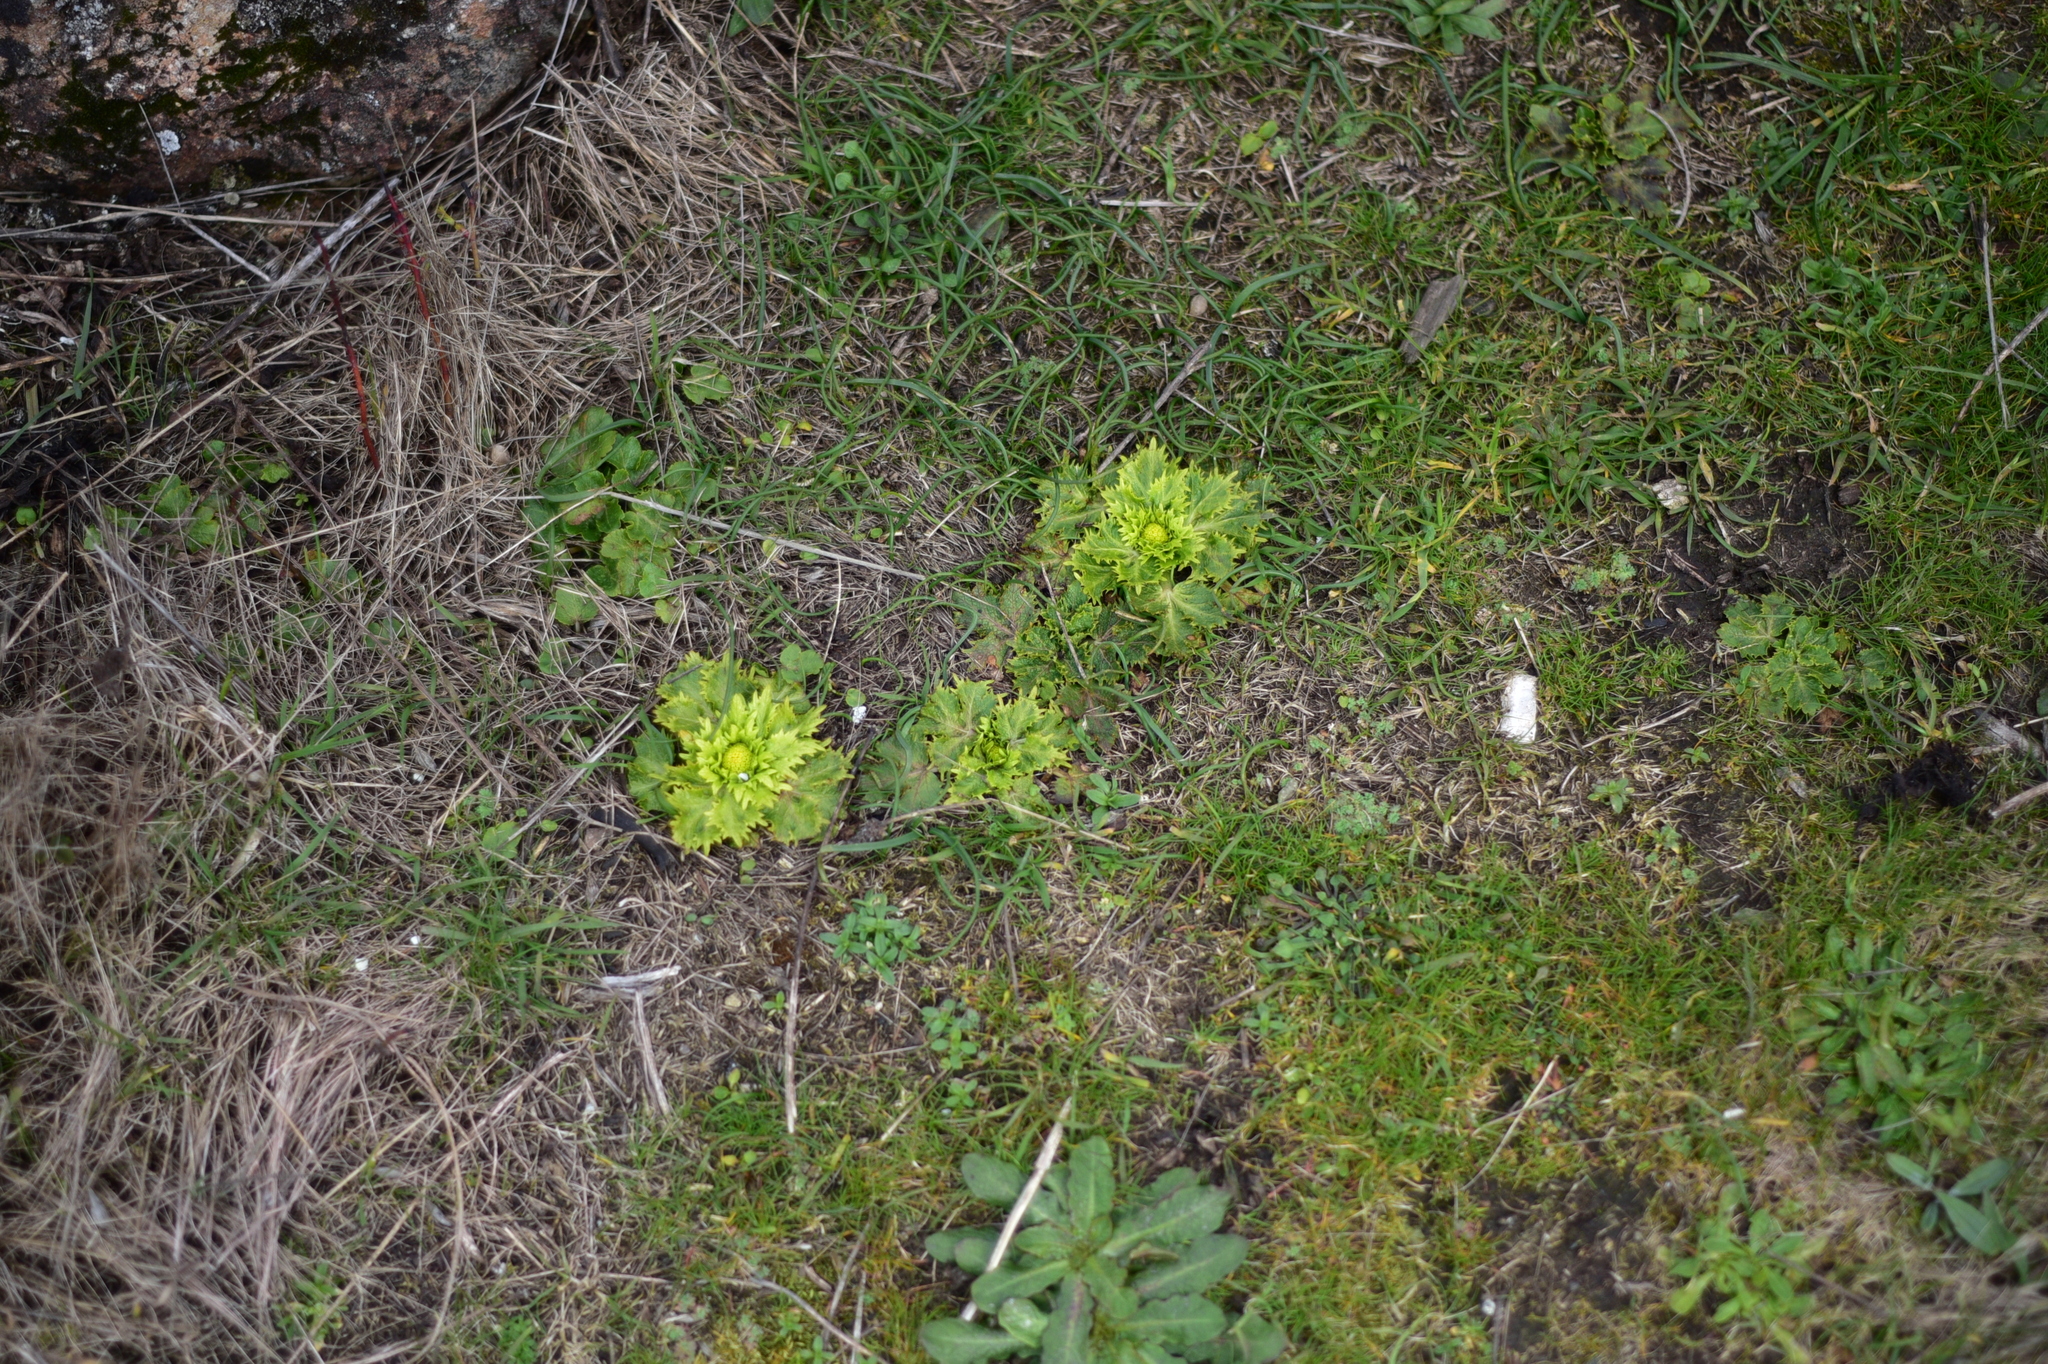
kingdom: Plantae
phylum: Tracheophyta
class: Magnoliopsida
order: Apiales
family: Apiaceae
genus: Sanicula
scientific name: Sanicula arctopoides
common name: Footsteps-of-spring
